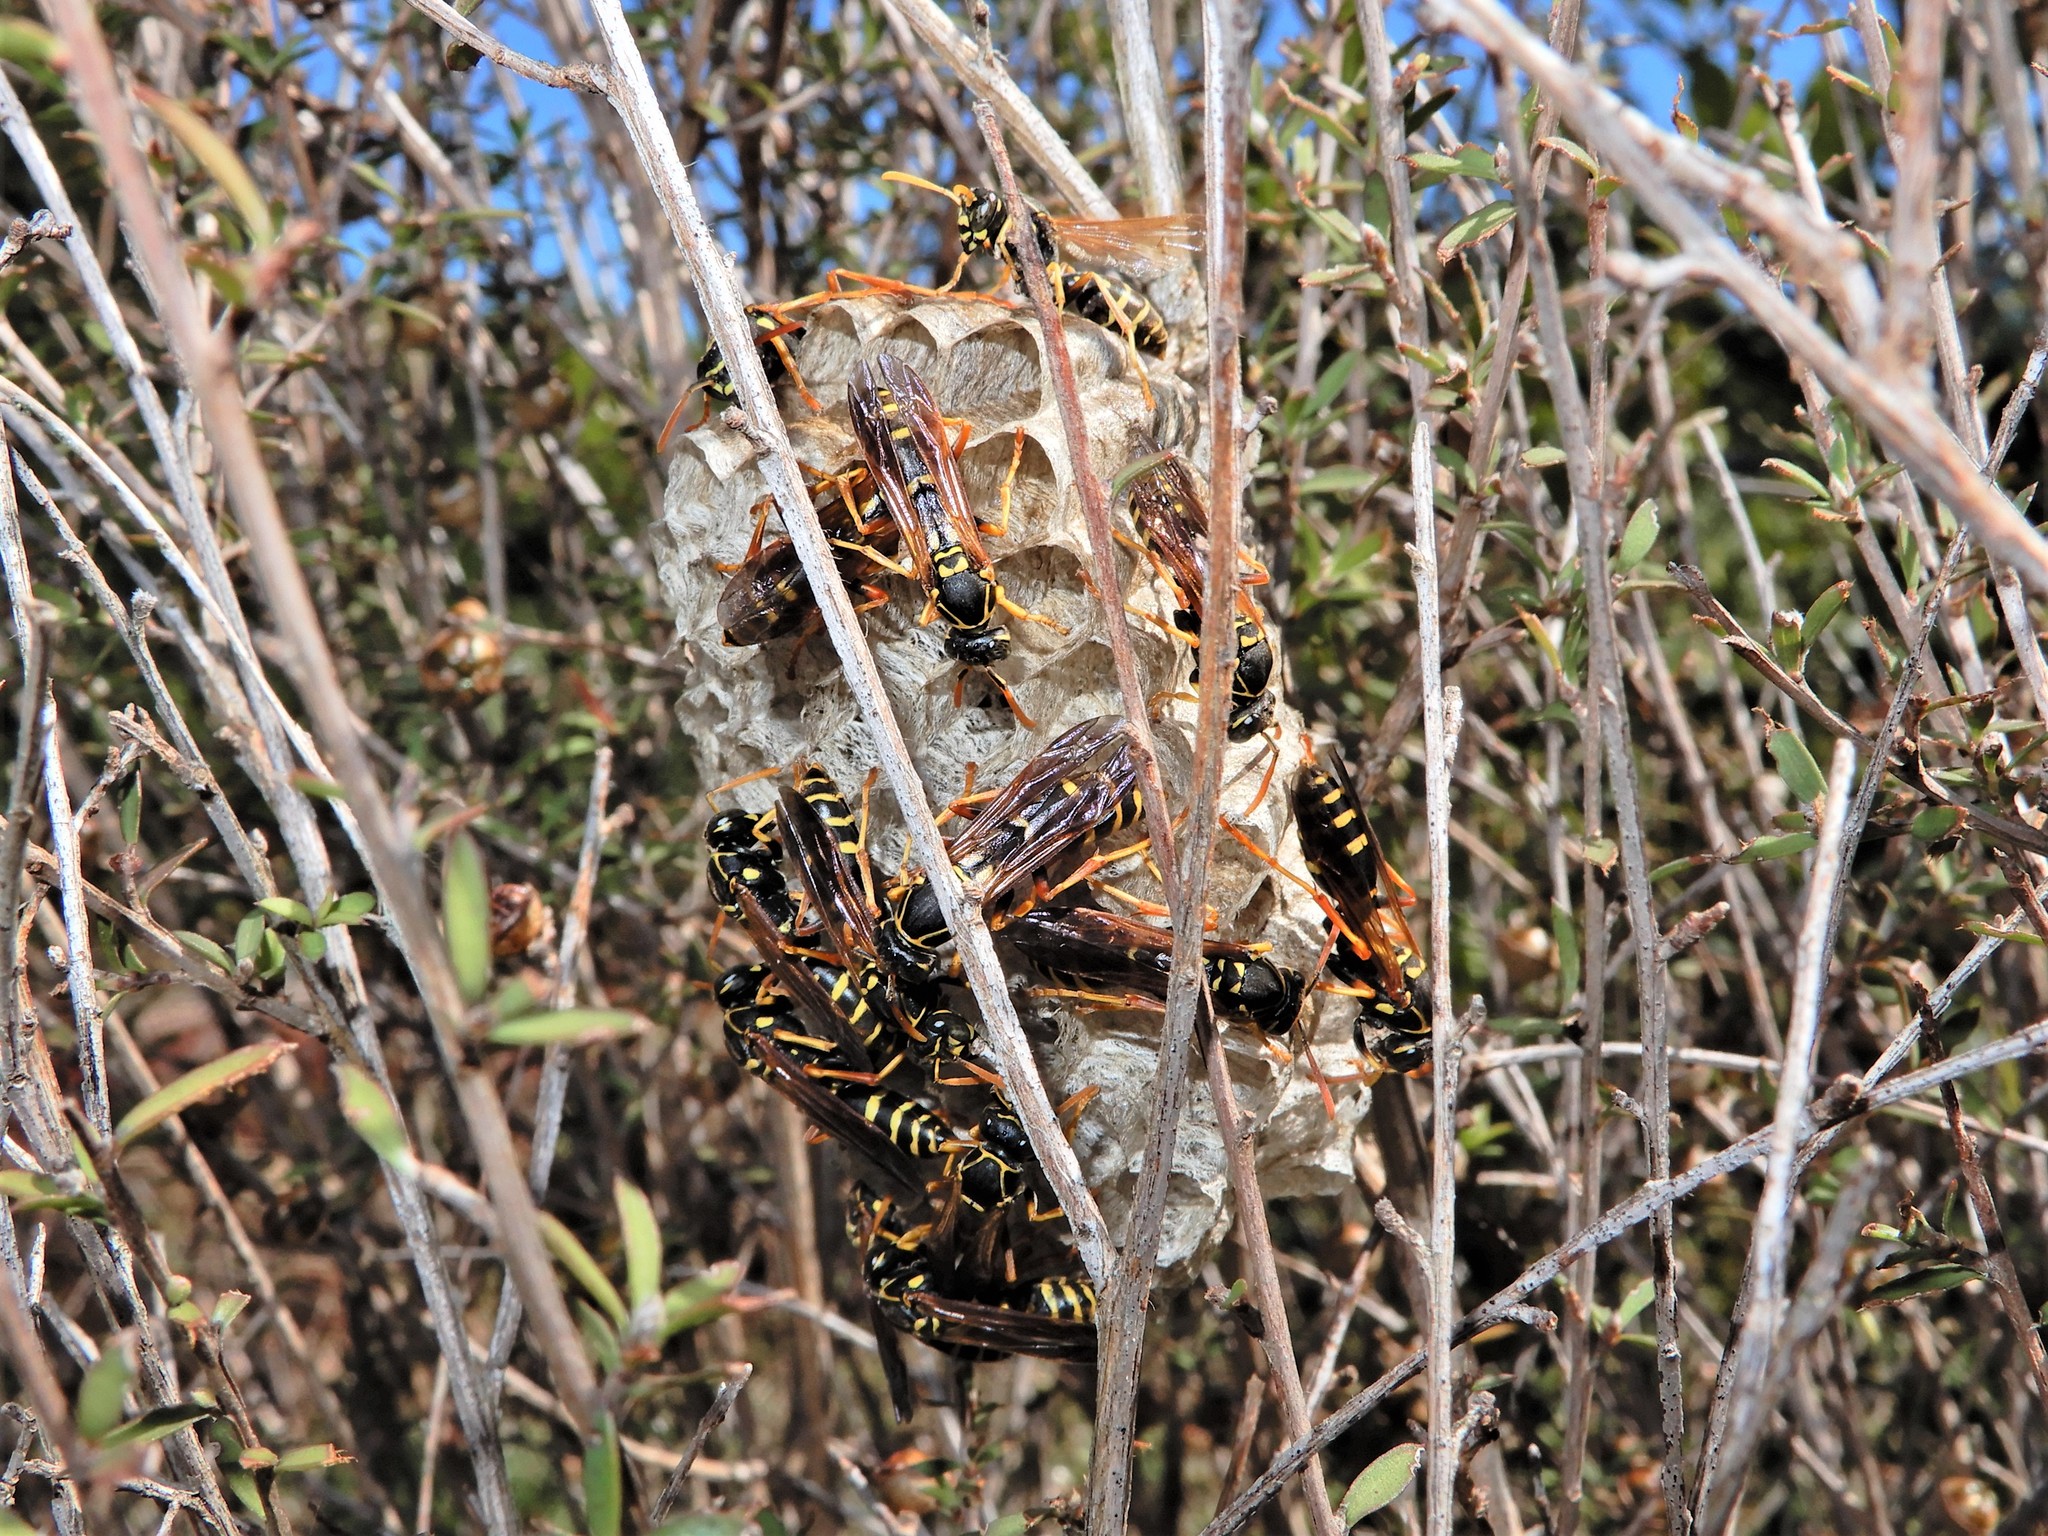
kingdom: Animalia
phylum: Arthropoda
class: Insecta
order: Hymenoptera
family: Eumenidae
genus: Polistes
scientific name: Polistes chinensis
